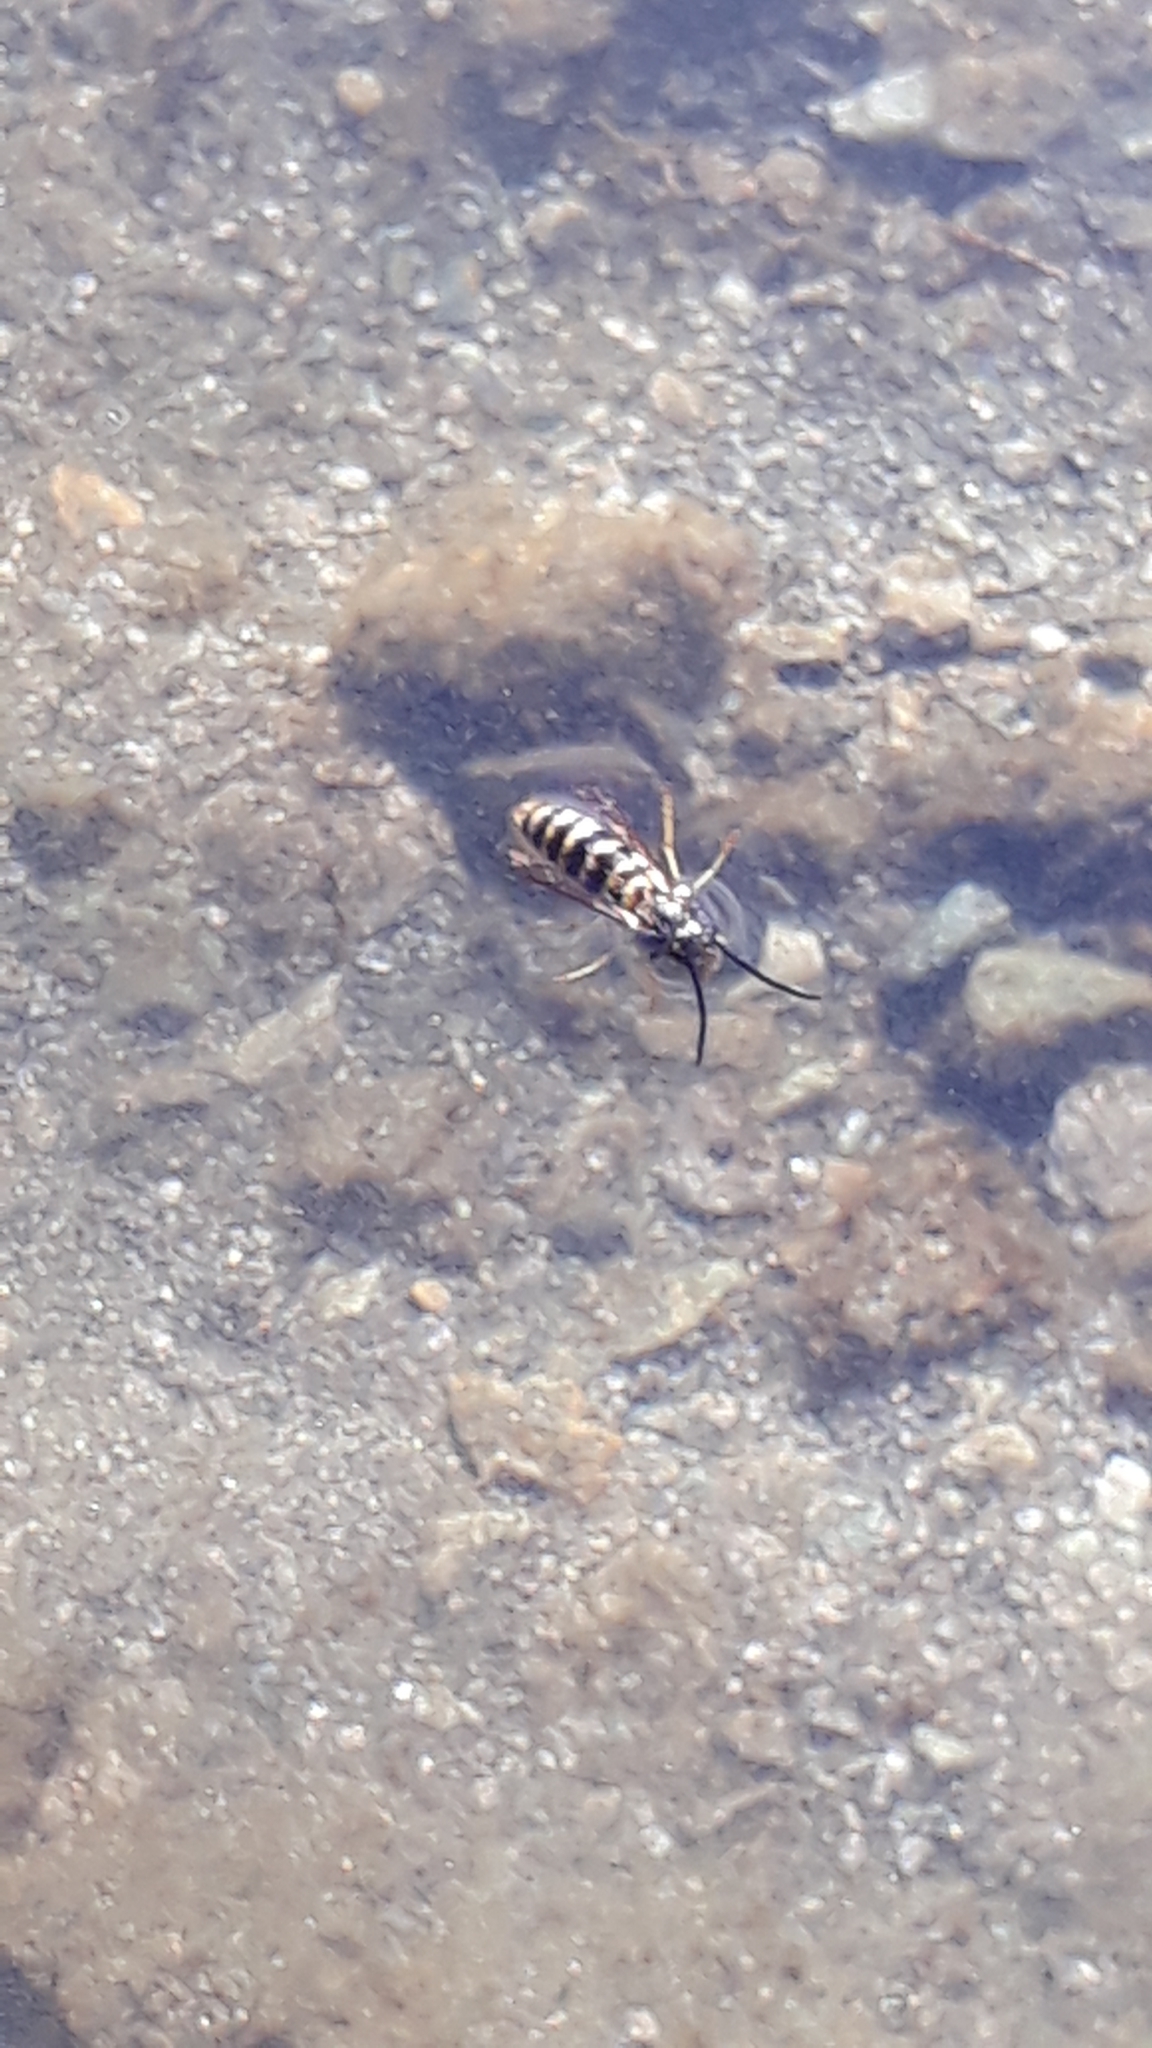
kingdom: Animalia
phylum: Arthropoda
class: Insecta
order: Hymenoptera
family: Vespidae
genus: Vespula
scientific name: Vespula vulgaris
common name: Common wasp
